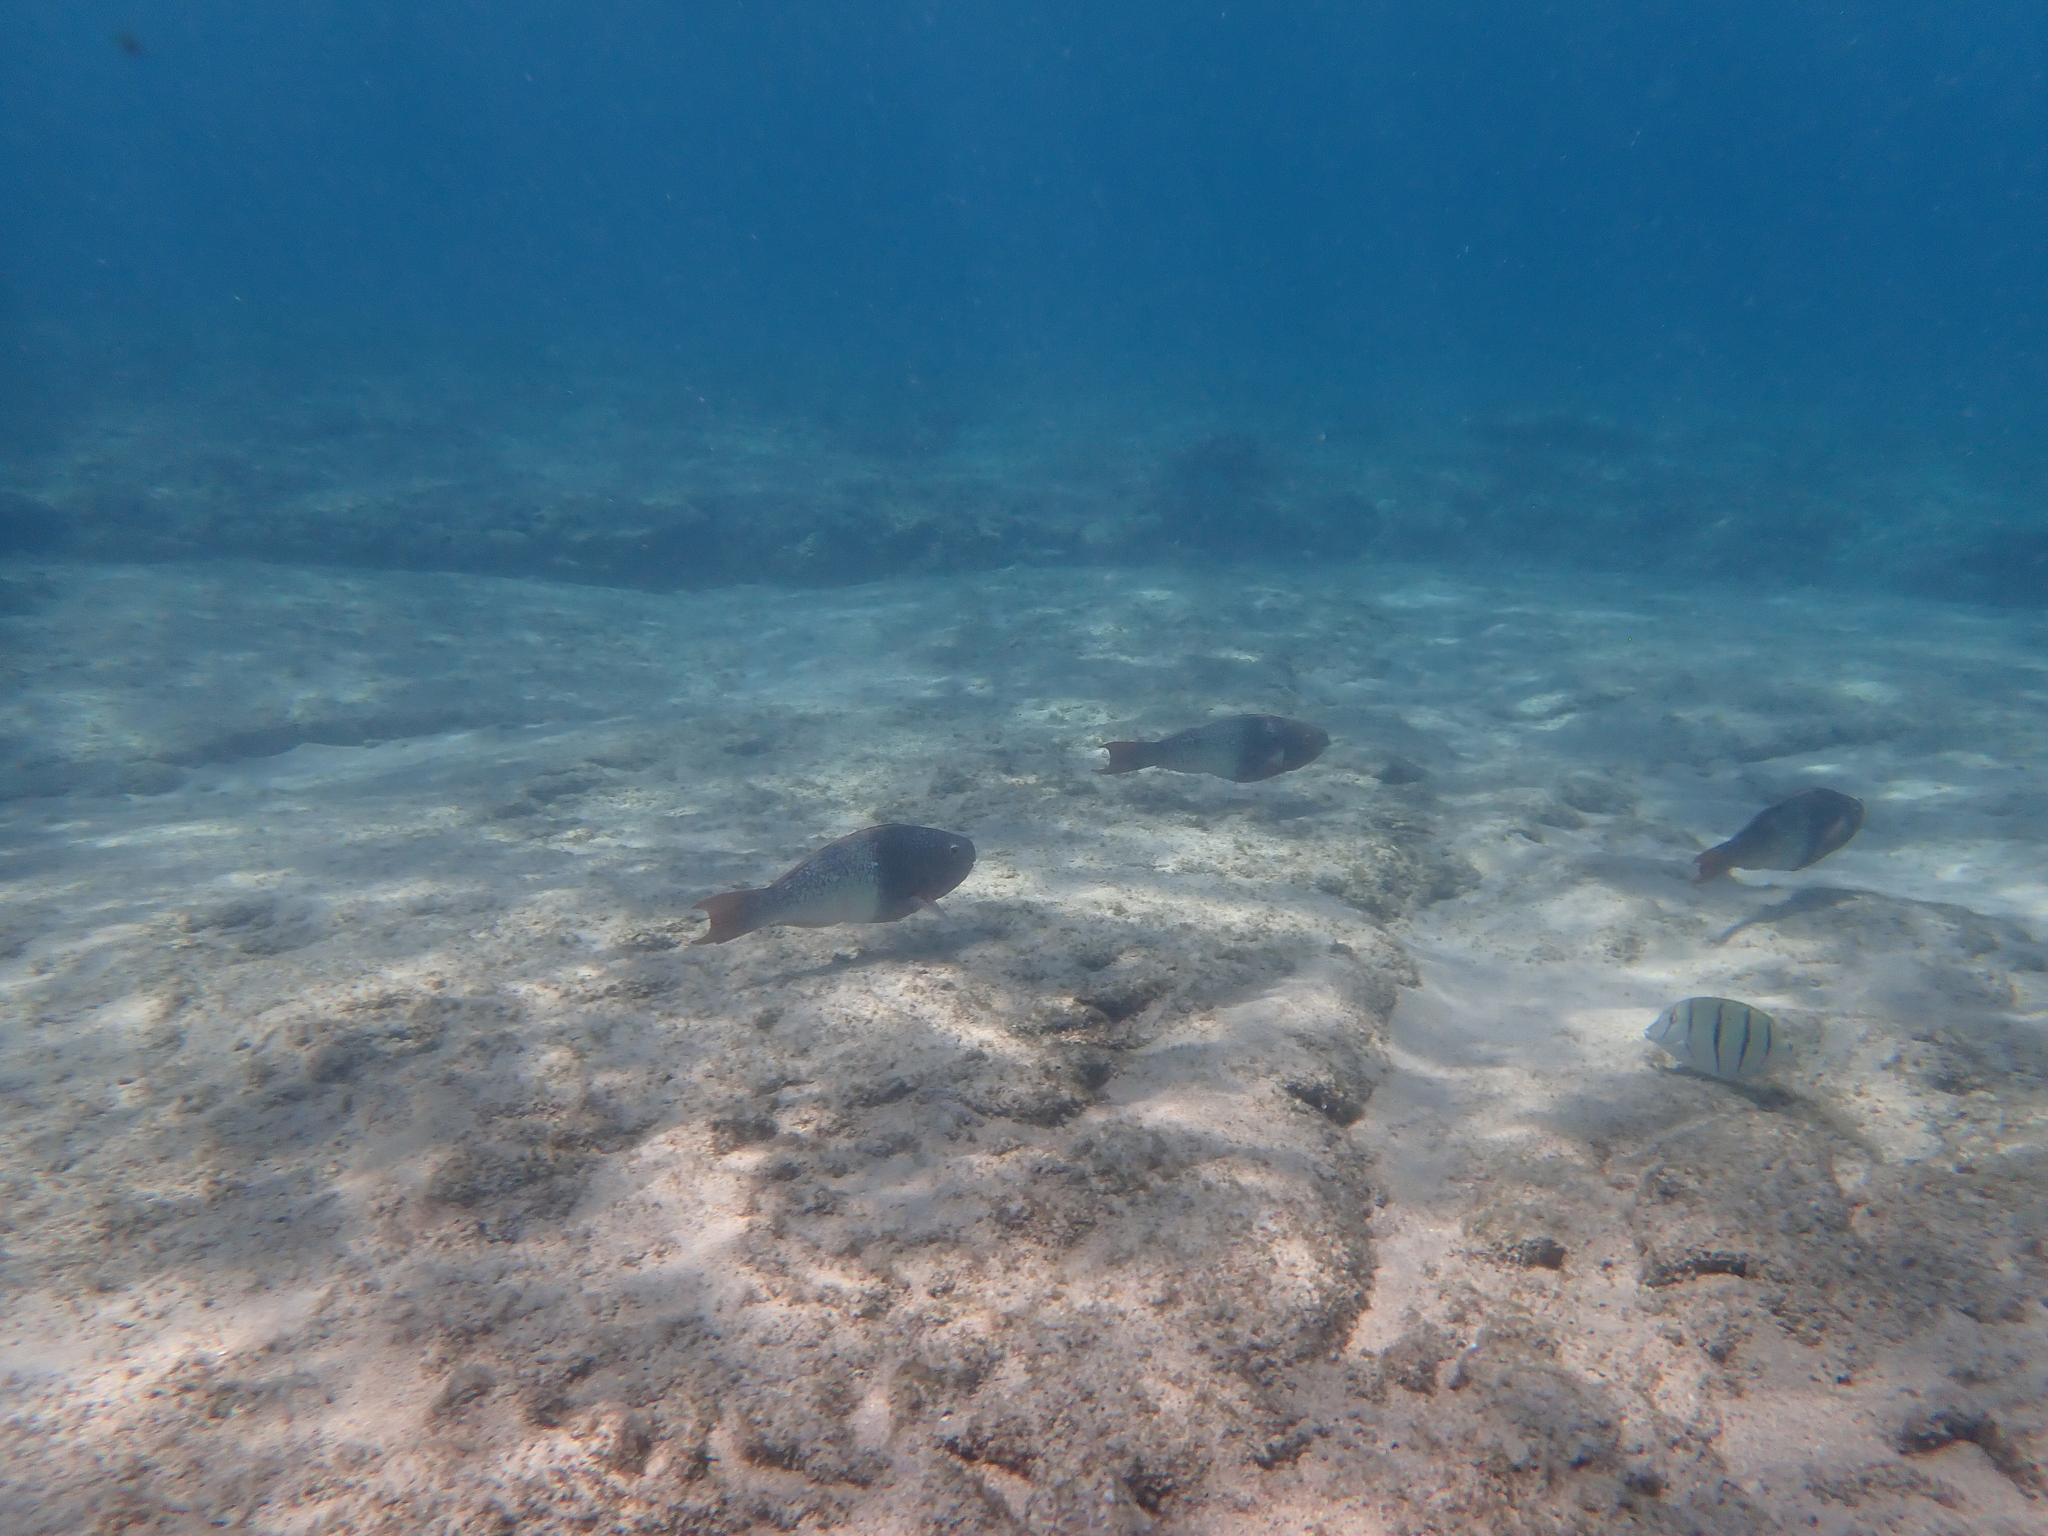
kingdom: Animalia
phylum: Chordata
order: Perciformes
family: Scaridae
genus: Scarus
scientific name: Scarus rubroviolaceus
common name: Ember parrotfish
